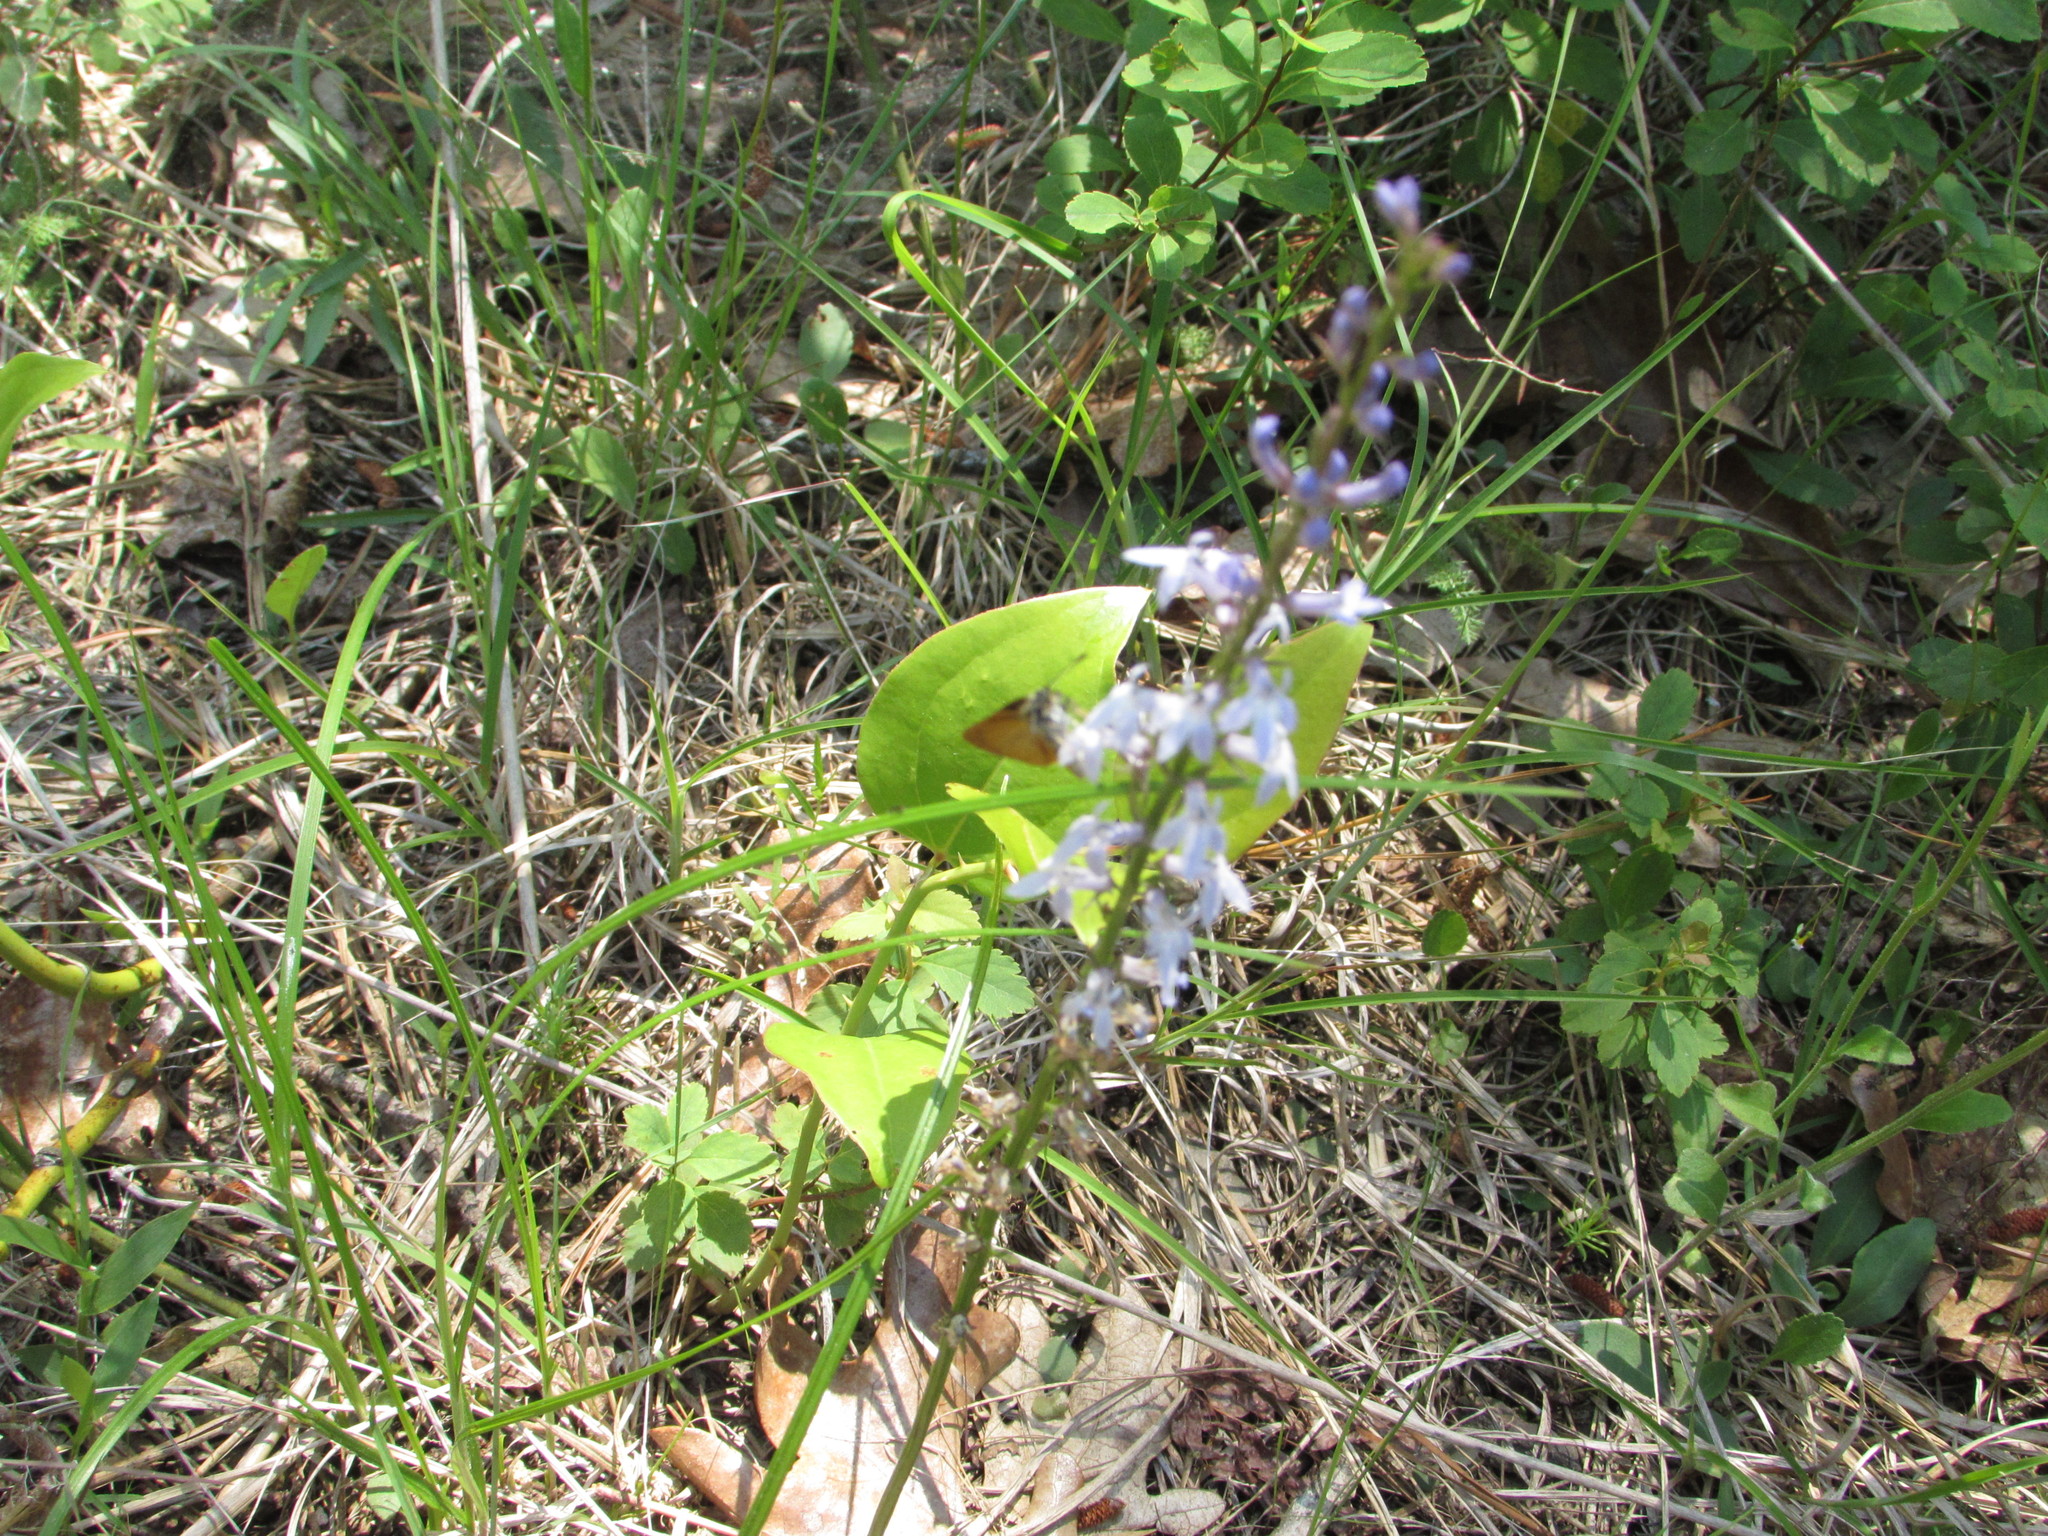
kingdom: Animalia
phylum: Arthropoda
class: Insecta
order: Lepidoptera
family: Hesperiidae
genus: Ancyloxypha
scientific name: Ancyloxypha numitor
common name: Least skipper
